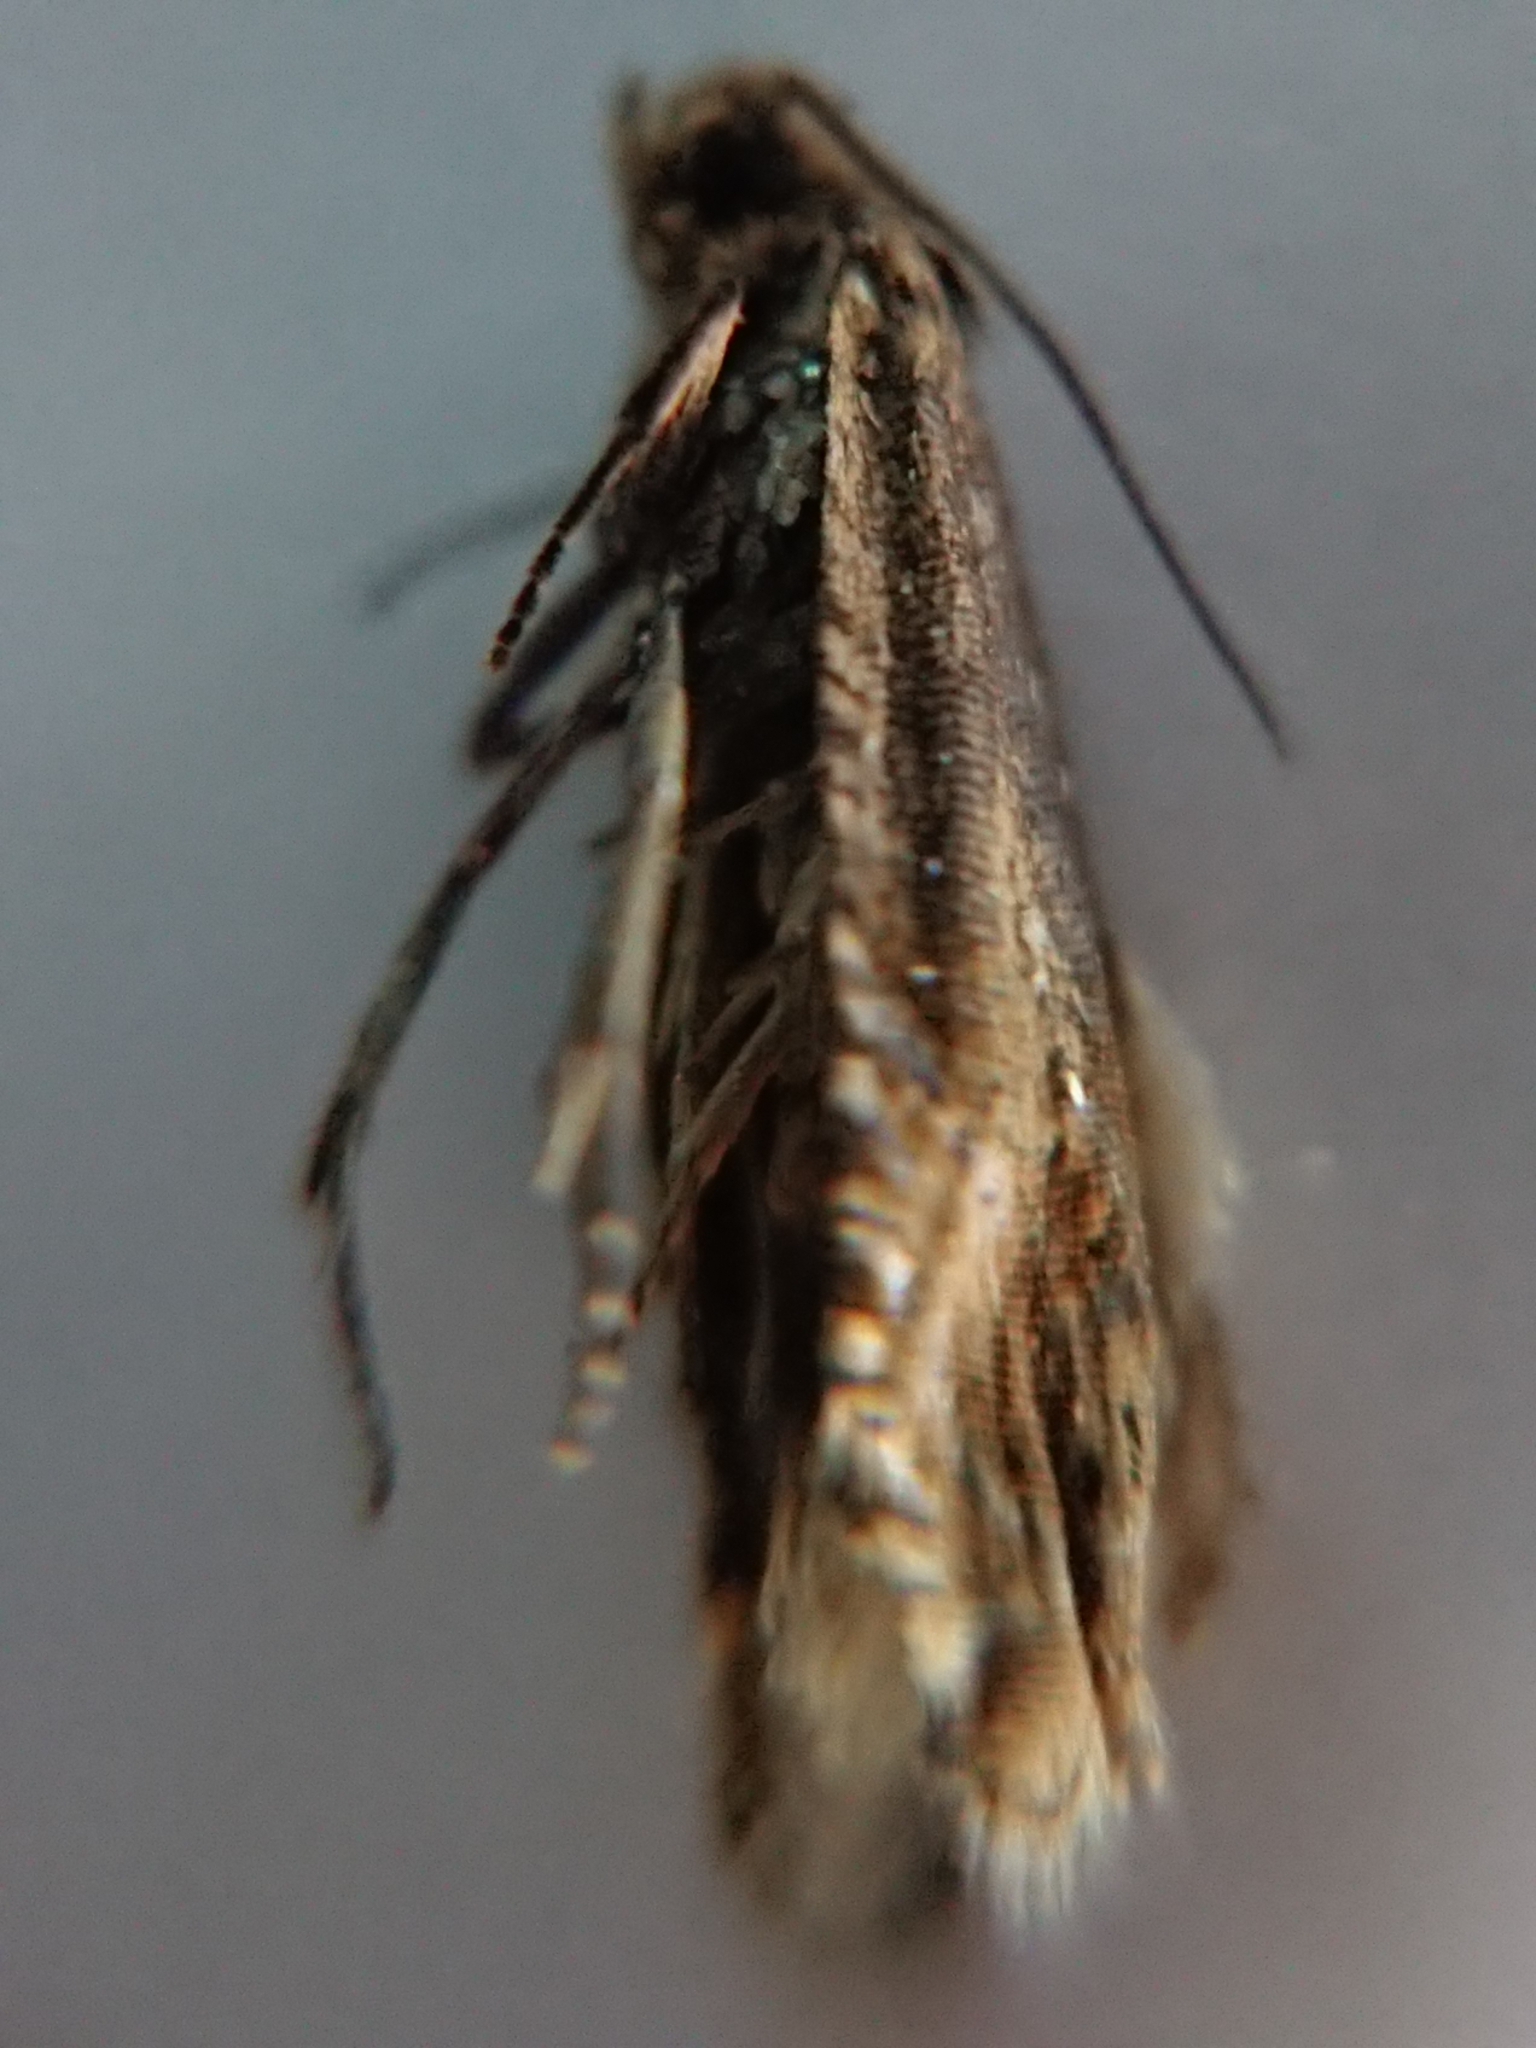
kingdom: Animalia
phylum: Arthropoda
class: Insecta
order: Lepidoptera
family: Tortricidae
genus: Cydia
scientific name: Cydia succedana
